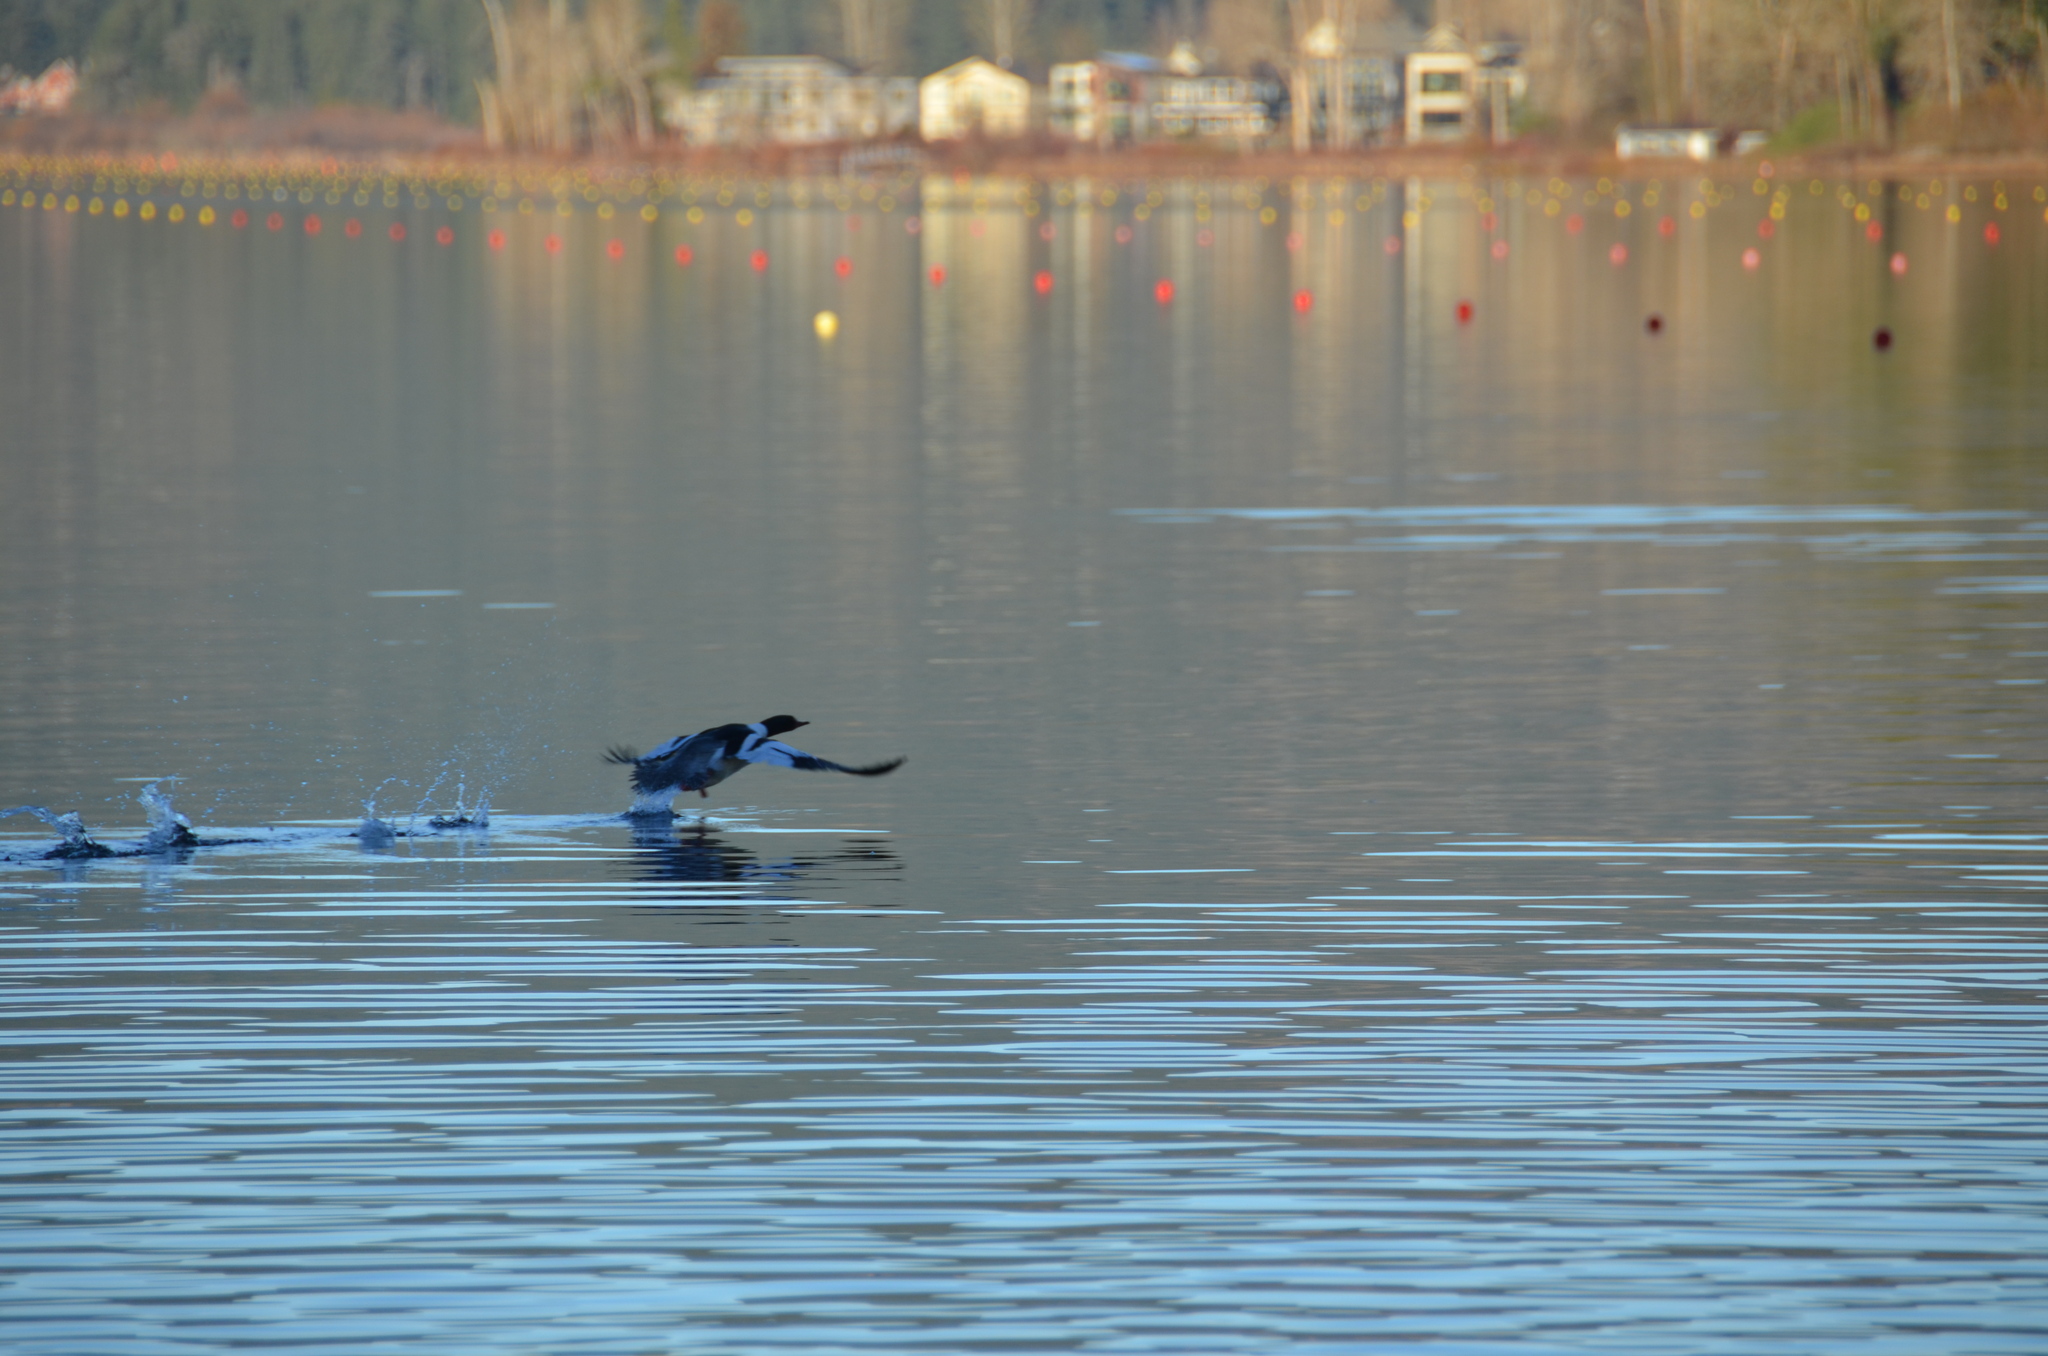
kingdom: Animalia
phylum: Chordata
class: Aves
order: Anseriformes
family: Anatidae
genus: Mergus
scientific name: Mergus merganser
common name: Common merganser
